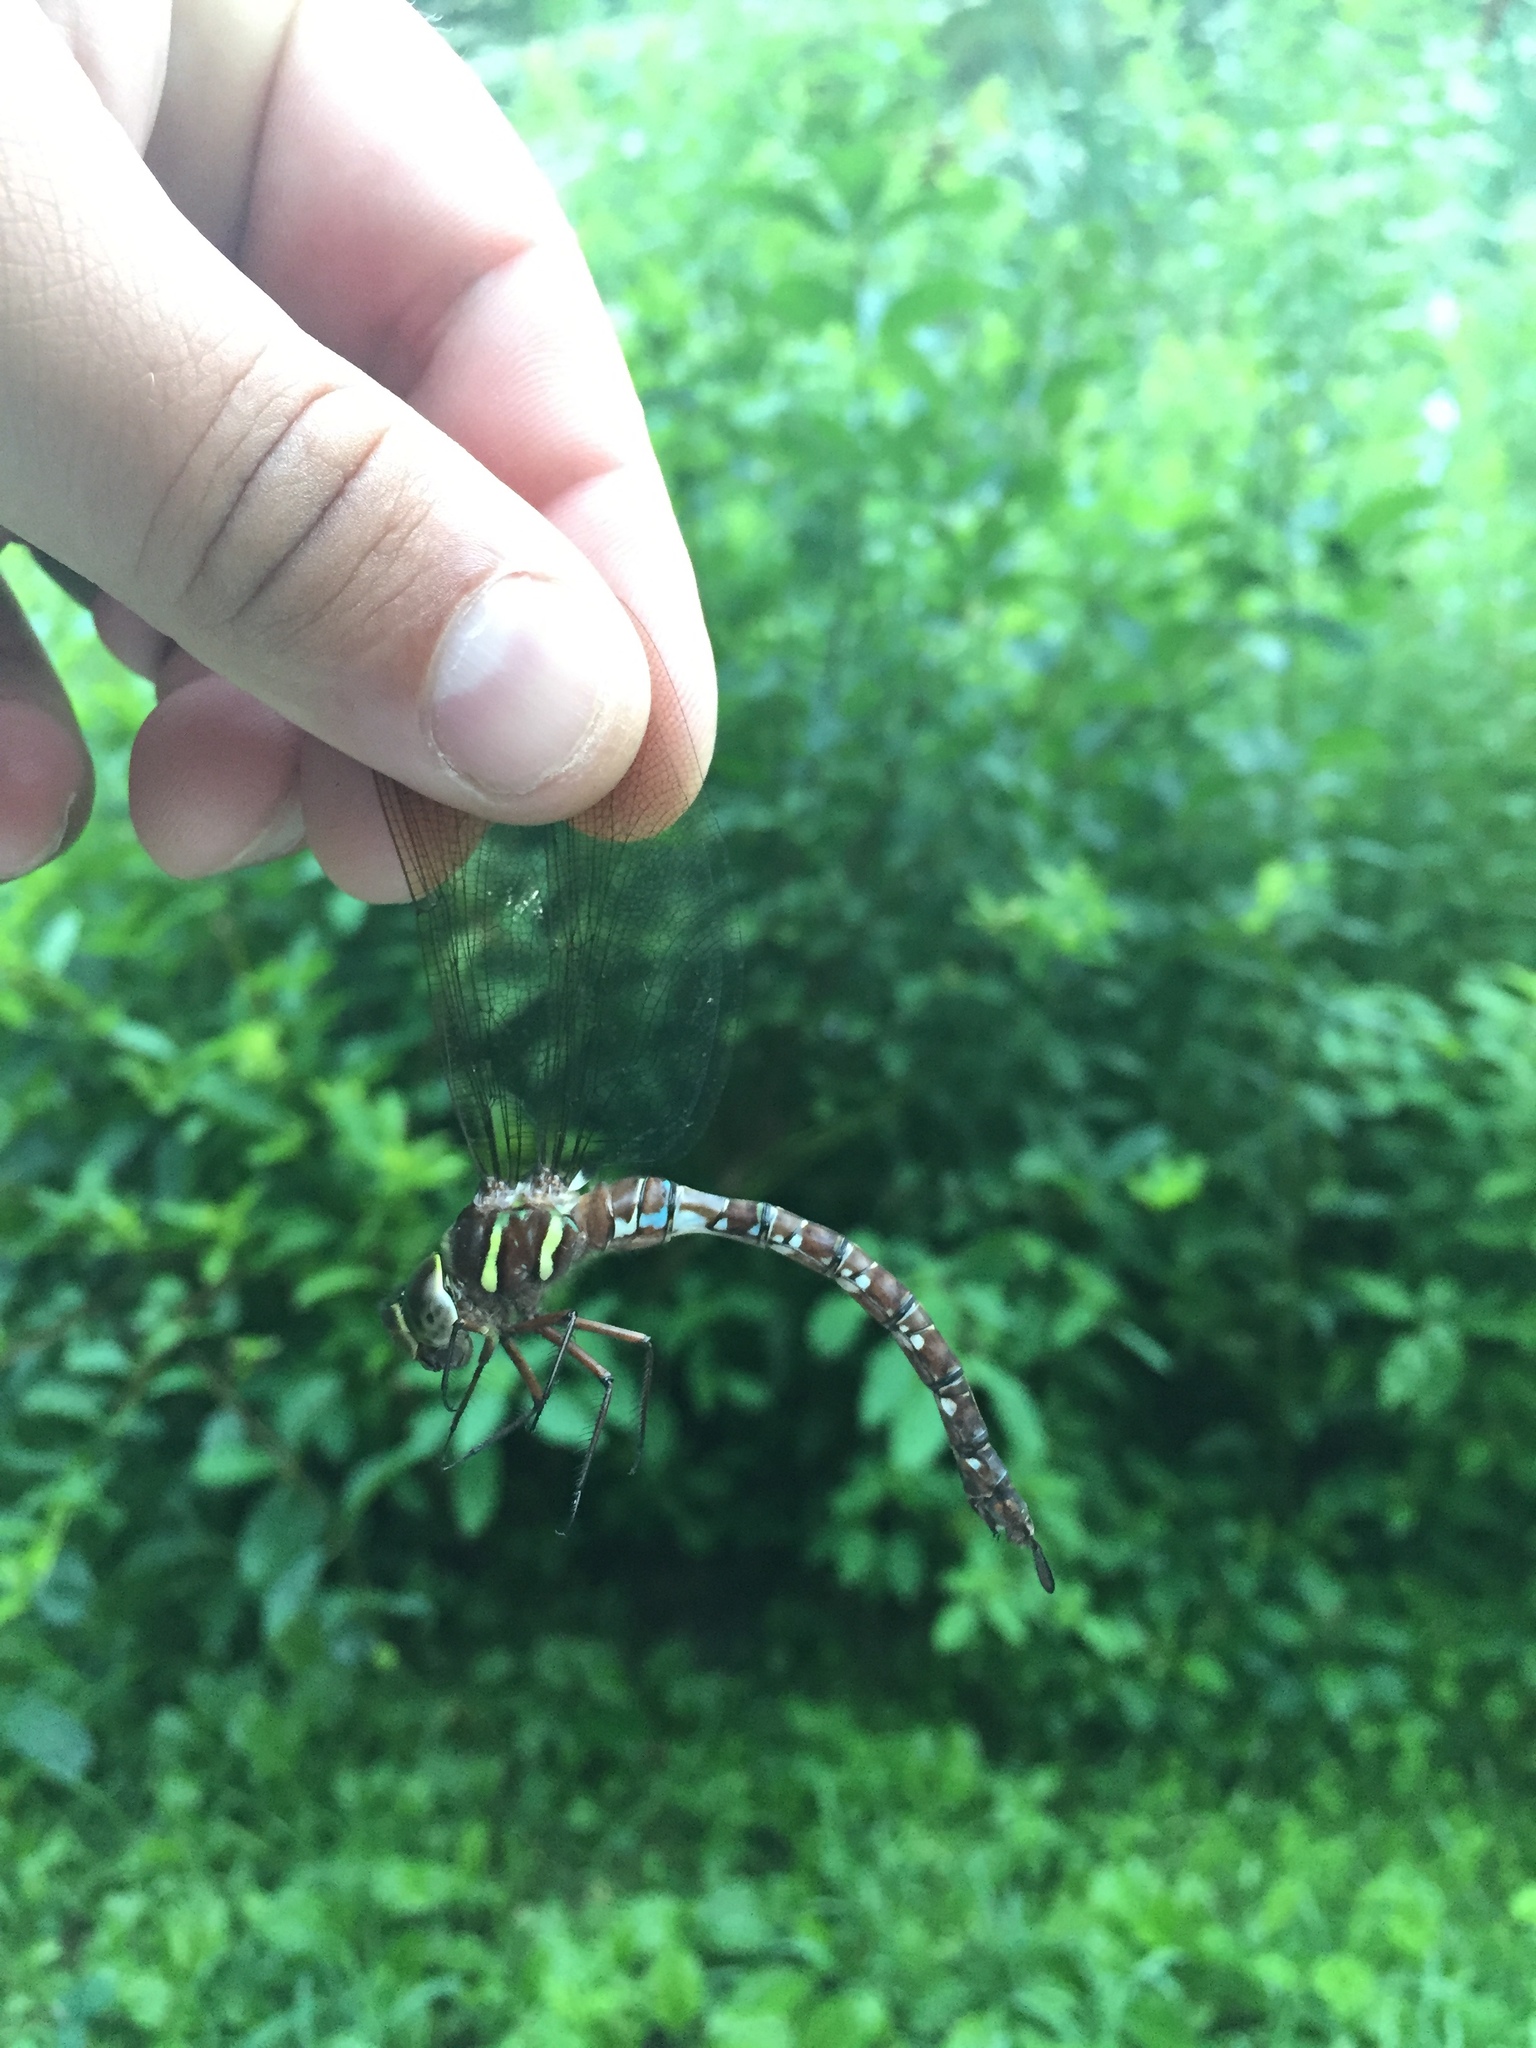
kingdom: Animalia
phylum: Arthropoda
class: Insecta
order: Odonata
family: Aeshnidae
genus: Aeshna
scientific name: Aeshna umbrosa
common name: Shadow darner
